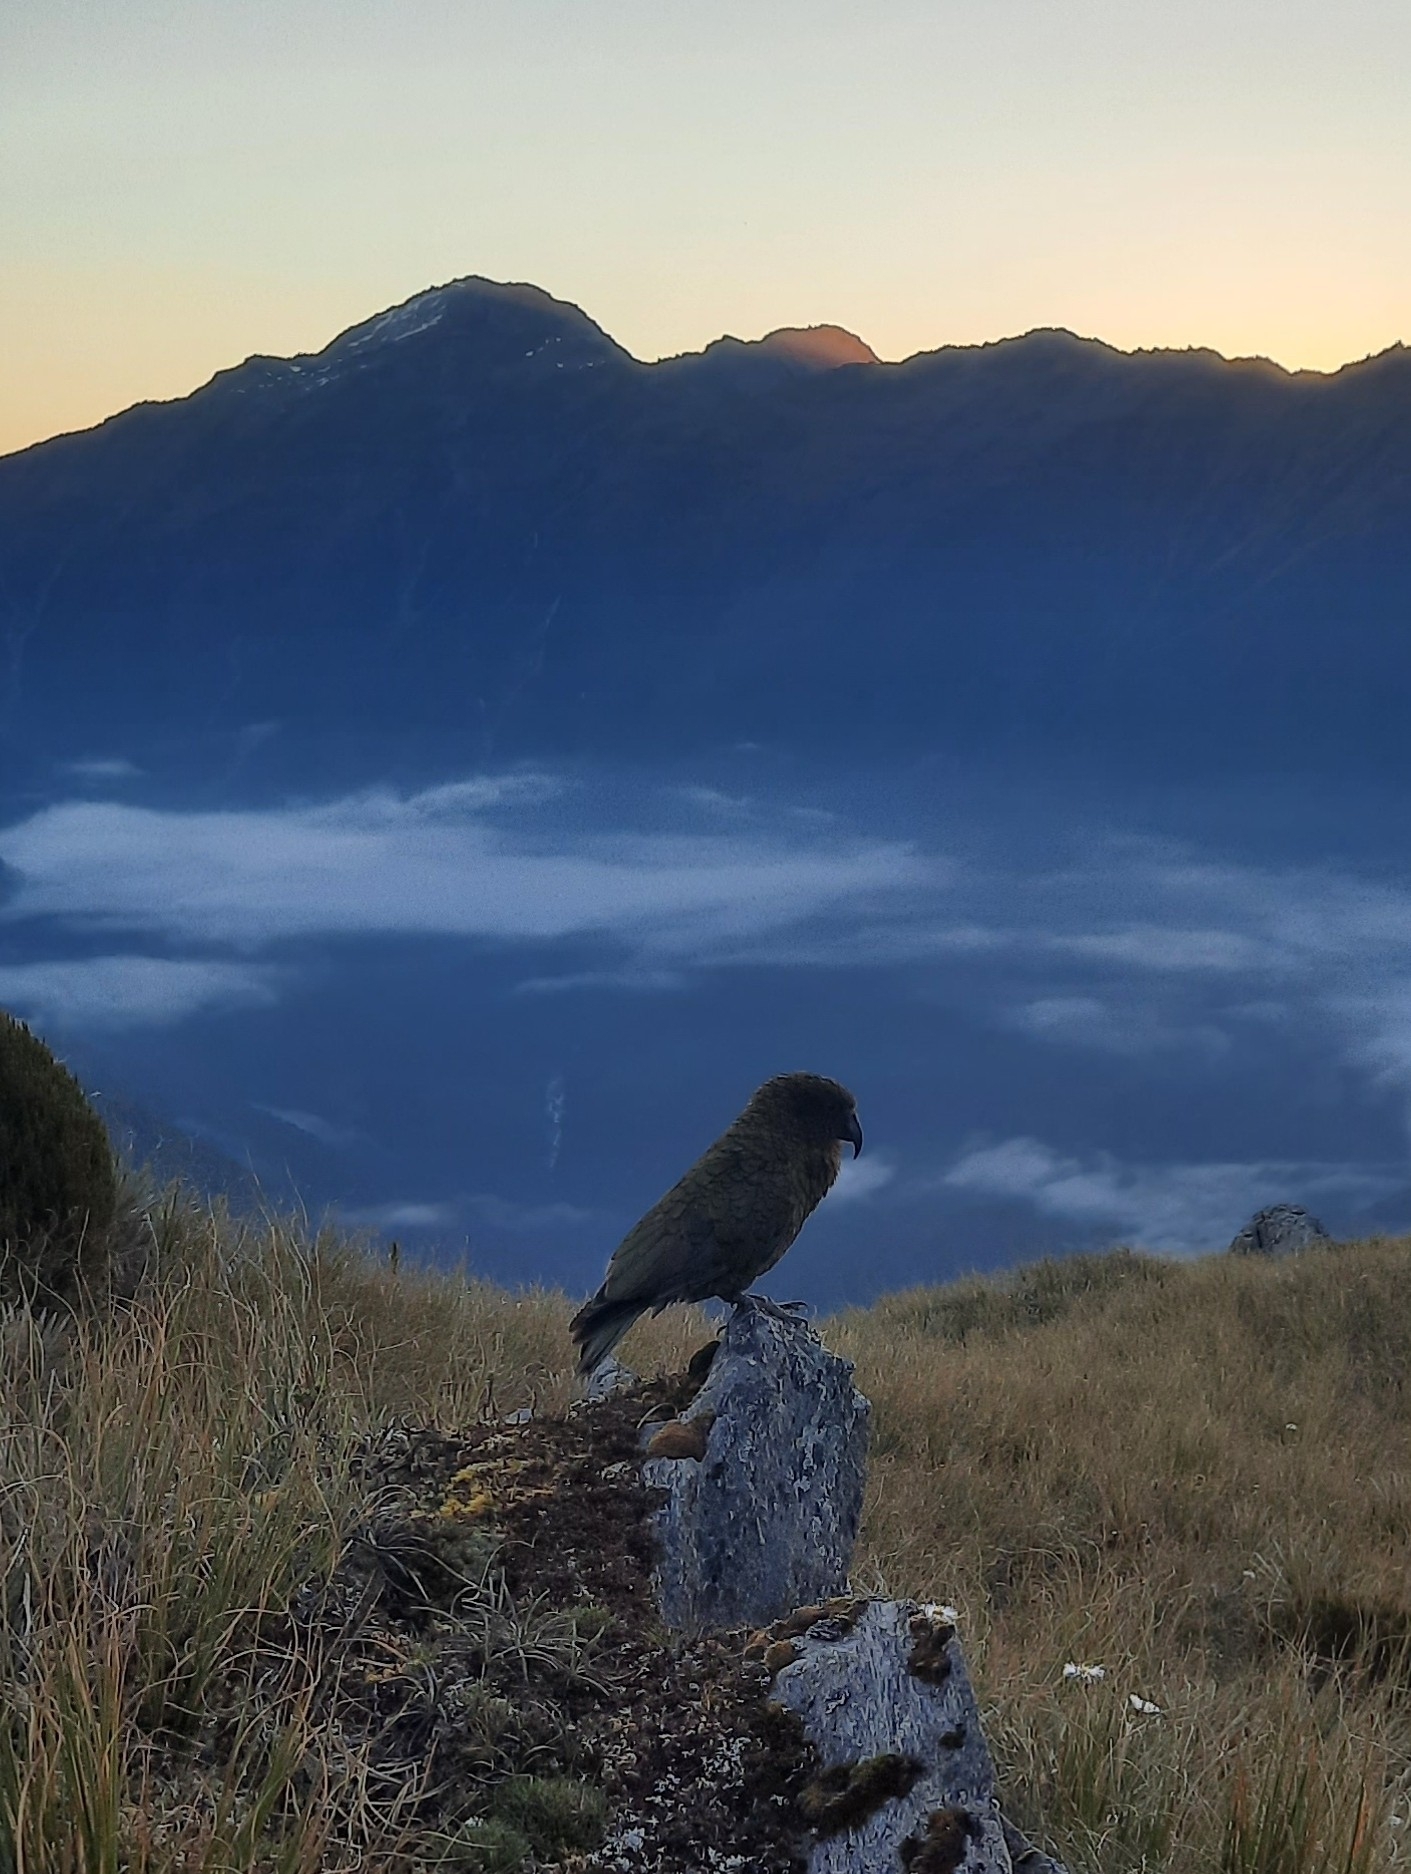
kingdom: Animalia
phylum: Chordata
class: Aves
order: Psittaciformes
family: Psittacidae
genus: Nestor
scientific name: Nestor notabilis
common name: Kea
